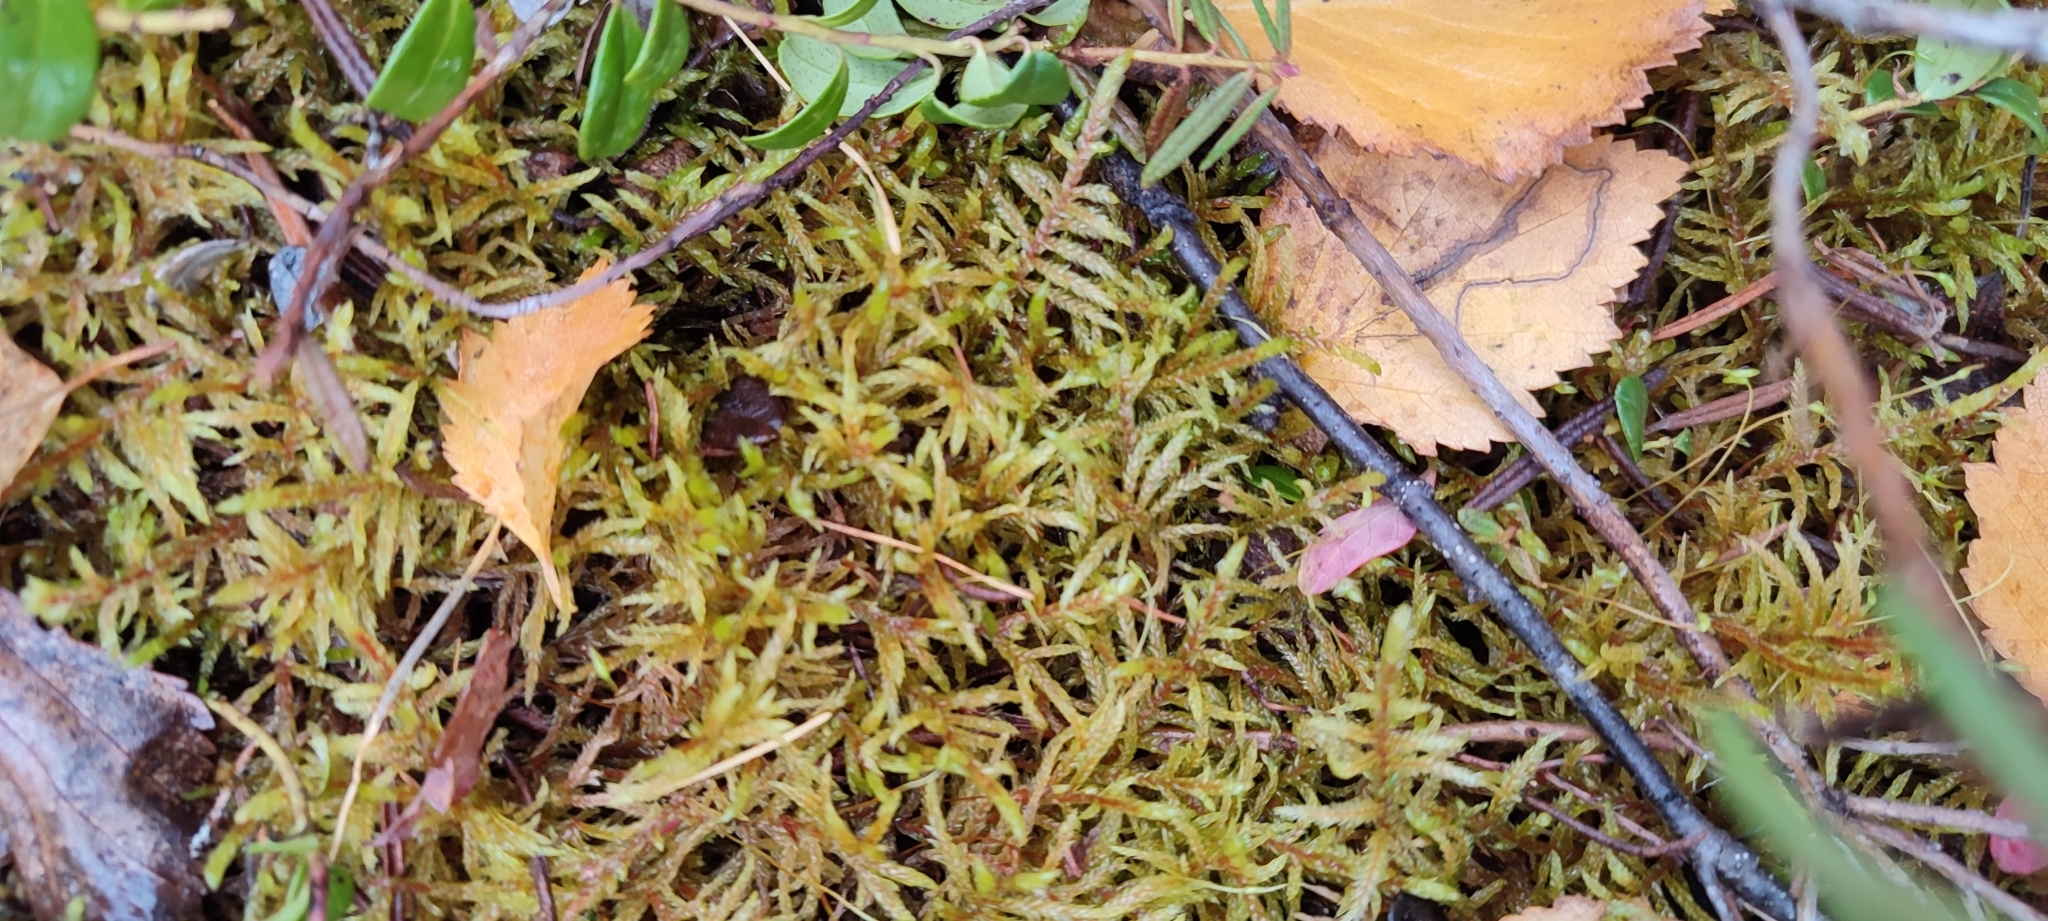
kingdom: Plantae
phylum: Bryophyta
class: Bryopsida
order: Hypnales
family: Hylocomiaceae
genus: Pleurozium
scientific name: Pleurozium schreberi
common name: Red-stemmed feather moss
